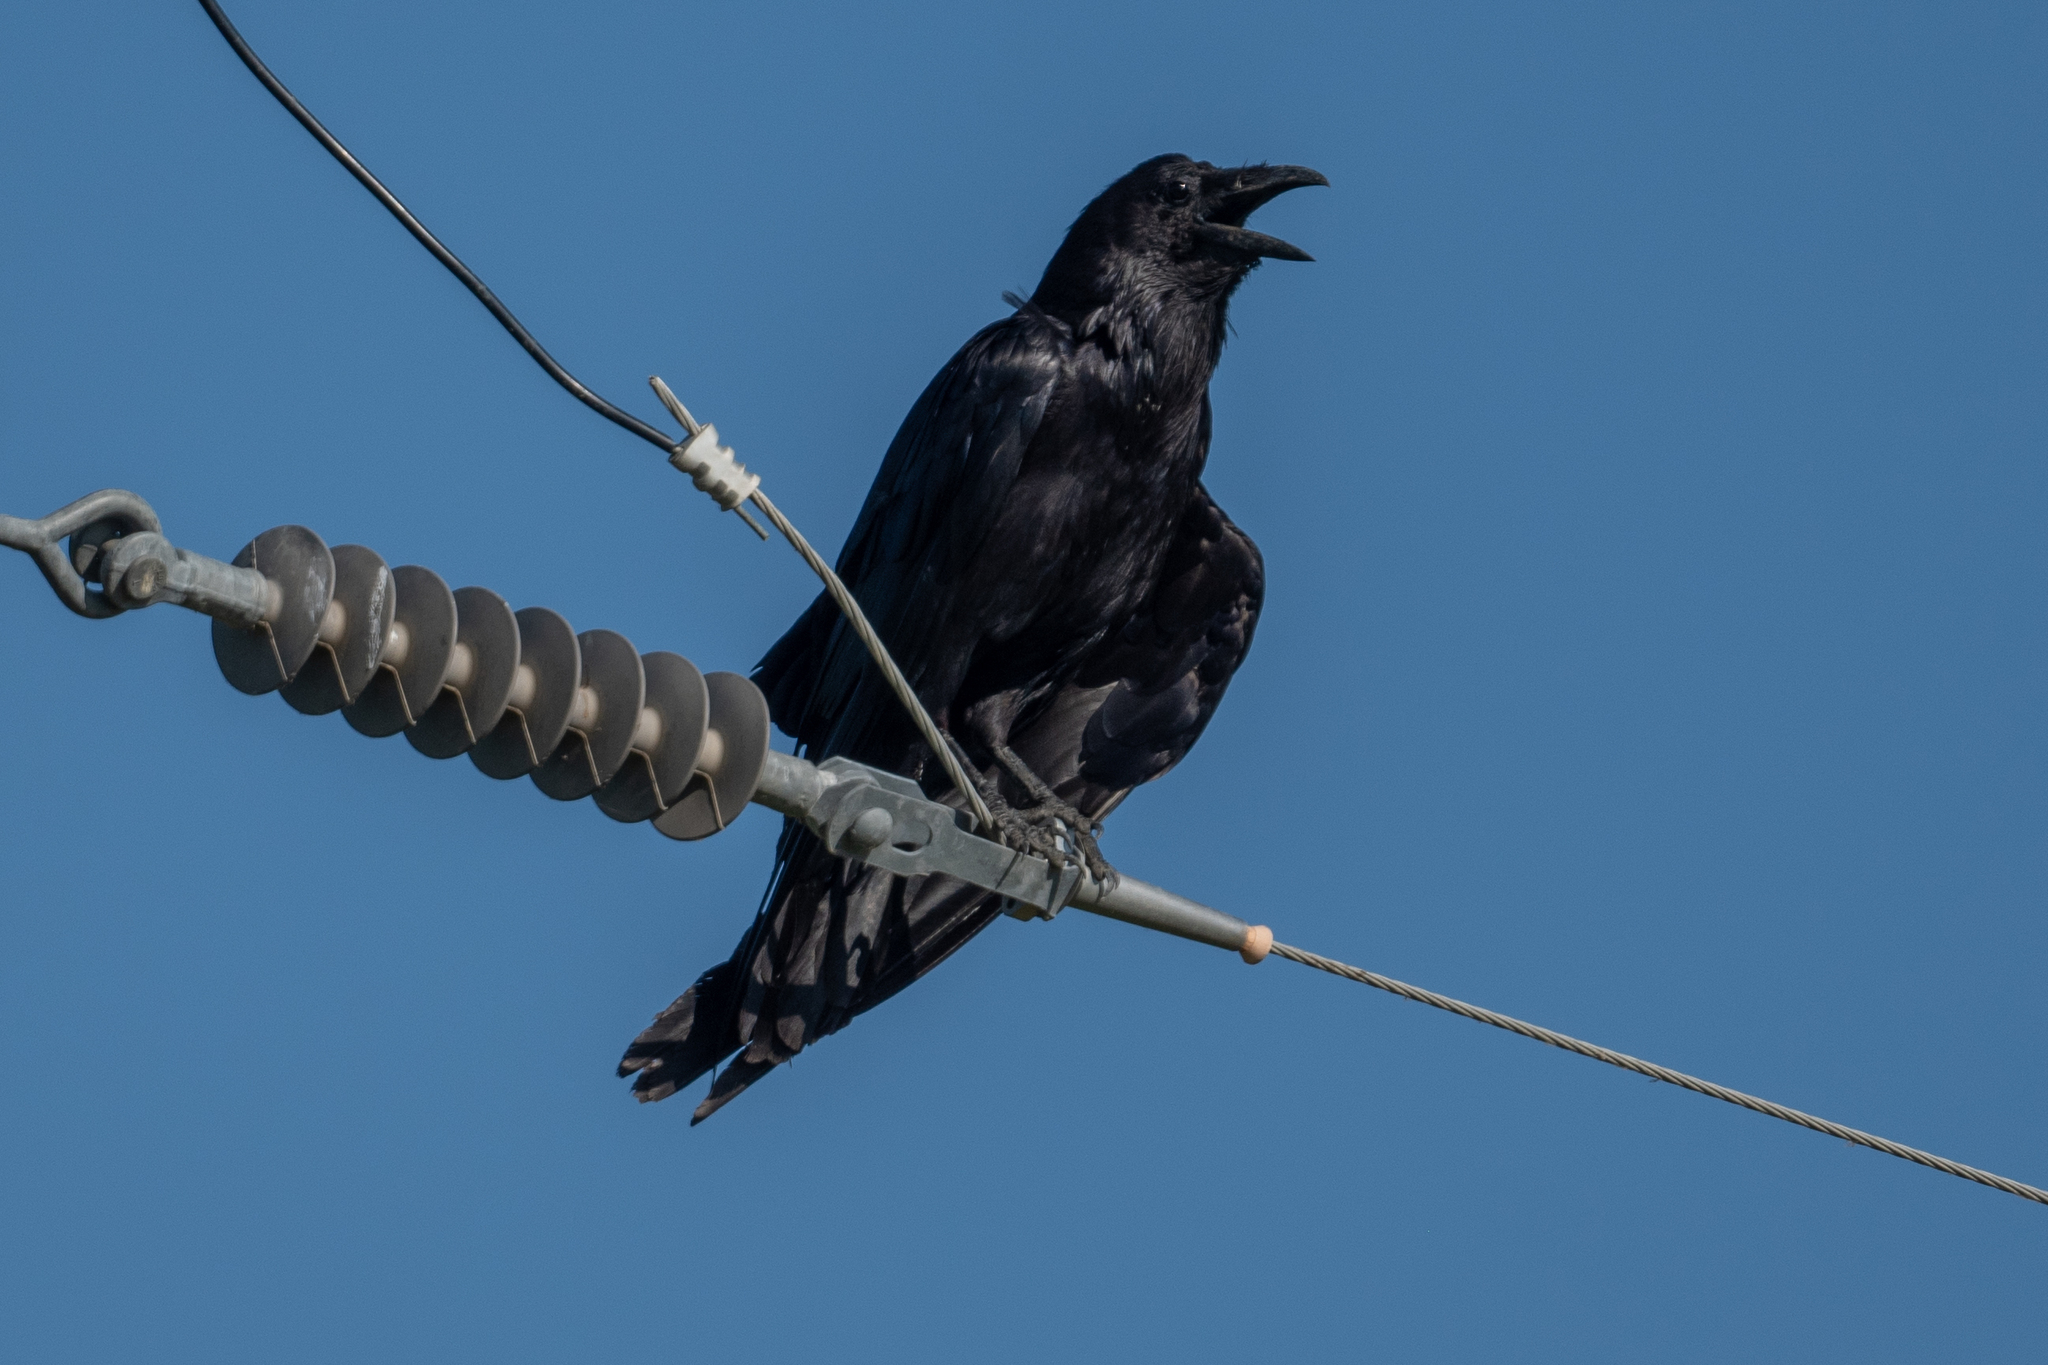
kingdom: Animalia
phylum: Chordata
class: Aves
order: Passeriformes
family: Corvidae
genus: Corvus
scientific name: Corvus corax
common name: Common raven
